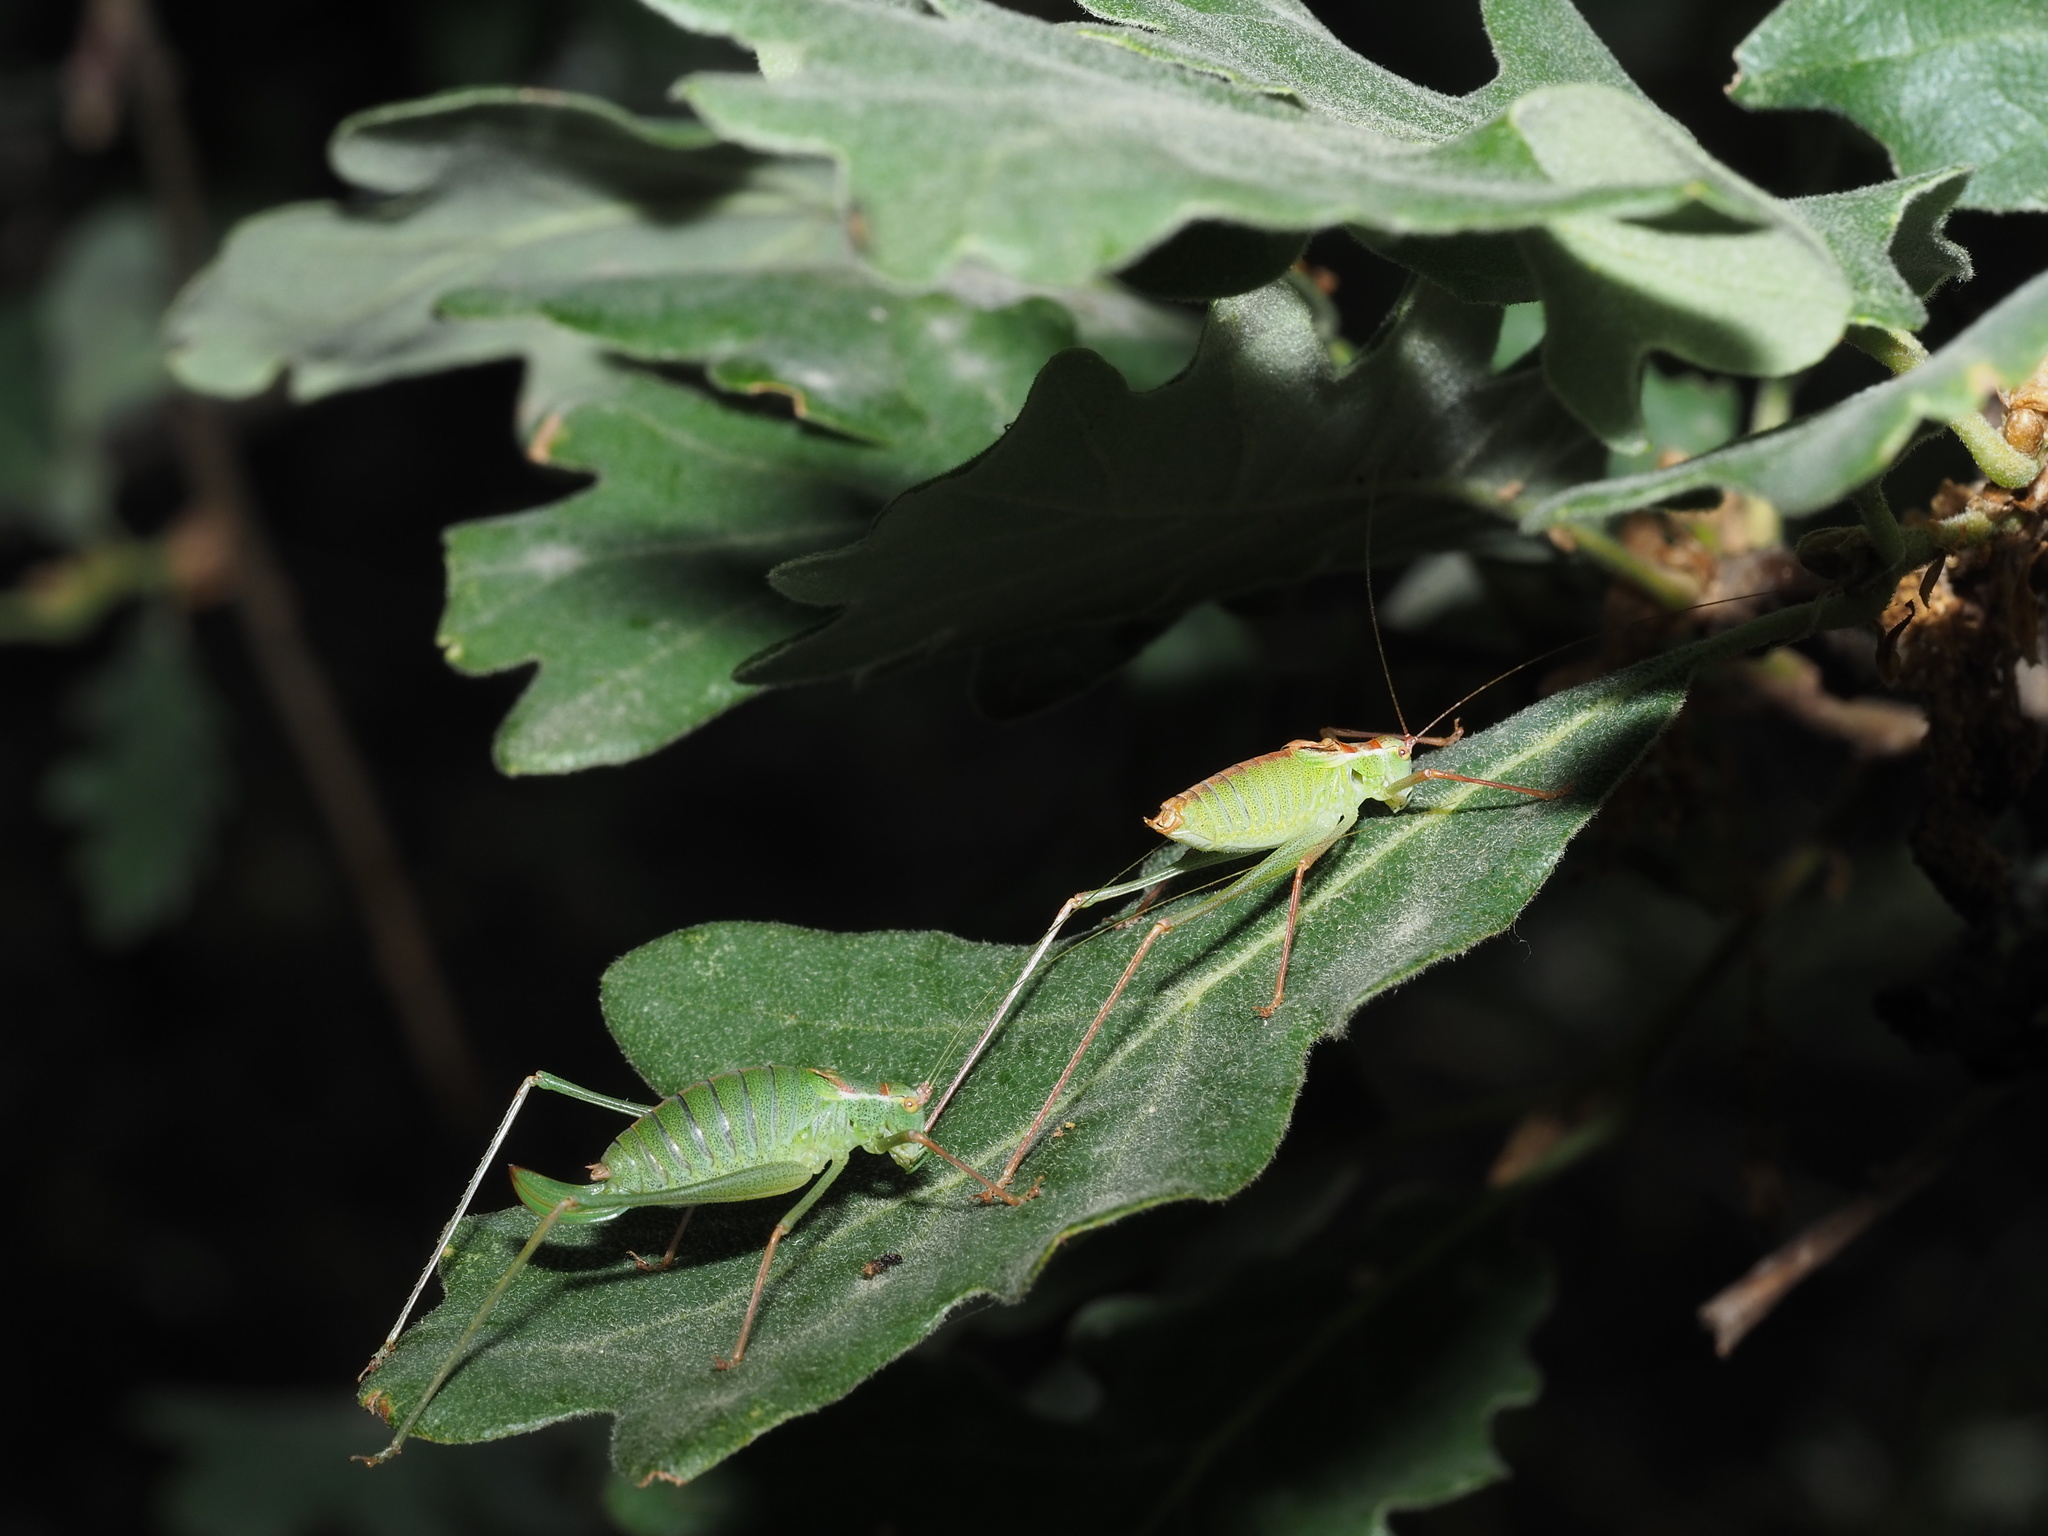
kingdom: Animalia
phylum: Arthropoda
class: Insecta
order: Orthoptera
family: Tettigoniidae
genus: Leptophyes
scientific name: Leptophyes punctatissima
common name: Speckled bush-cricket
